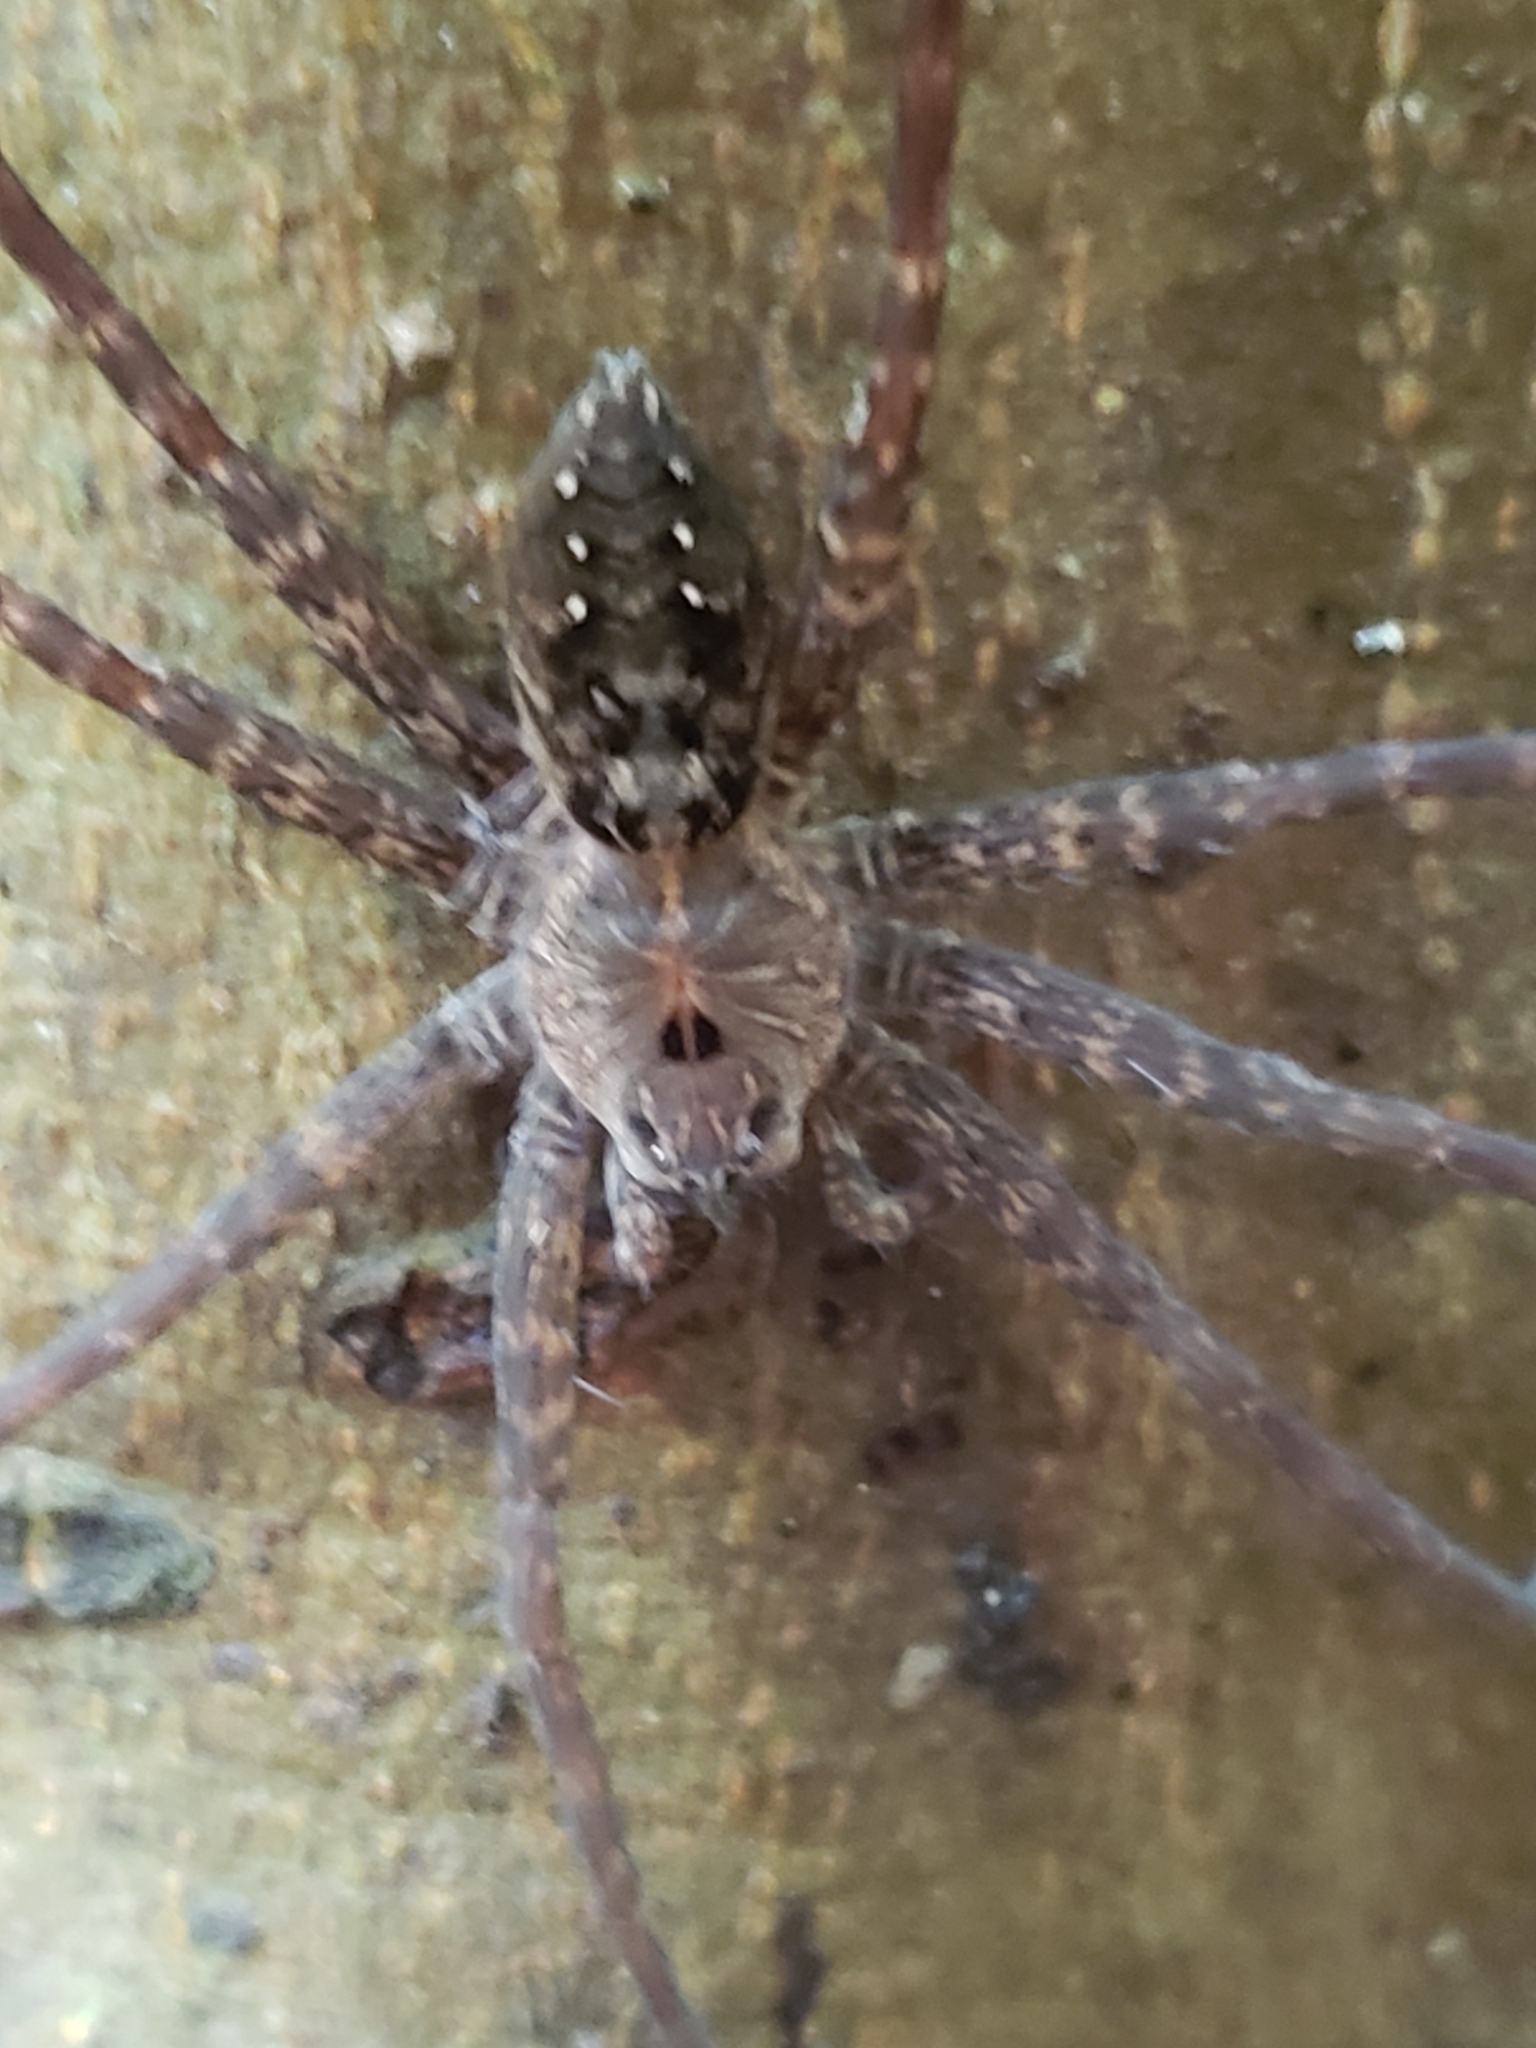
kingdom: Animalia
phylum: Arthropoda
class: Arachnida
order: Araneae
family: Pisauridae
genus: Dolomedes
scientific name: Dolomedes vittatus
